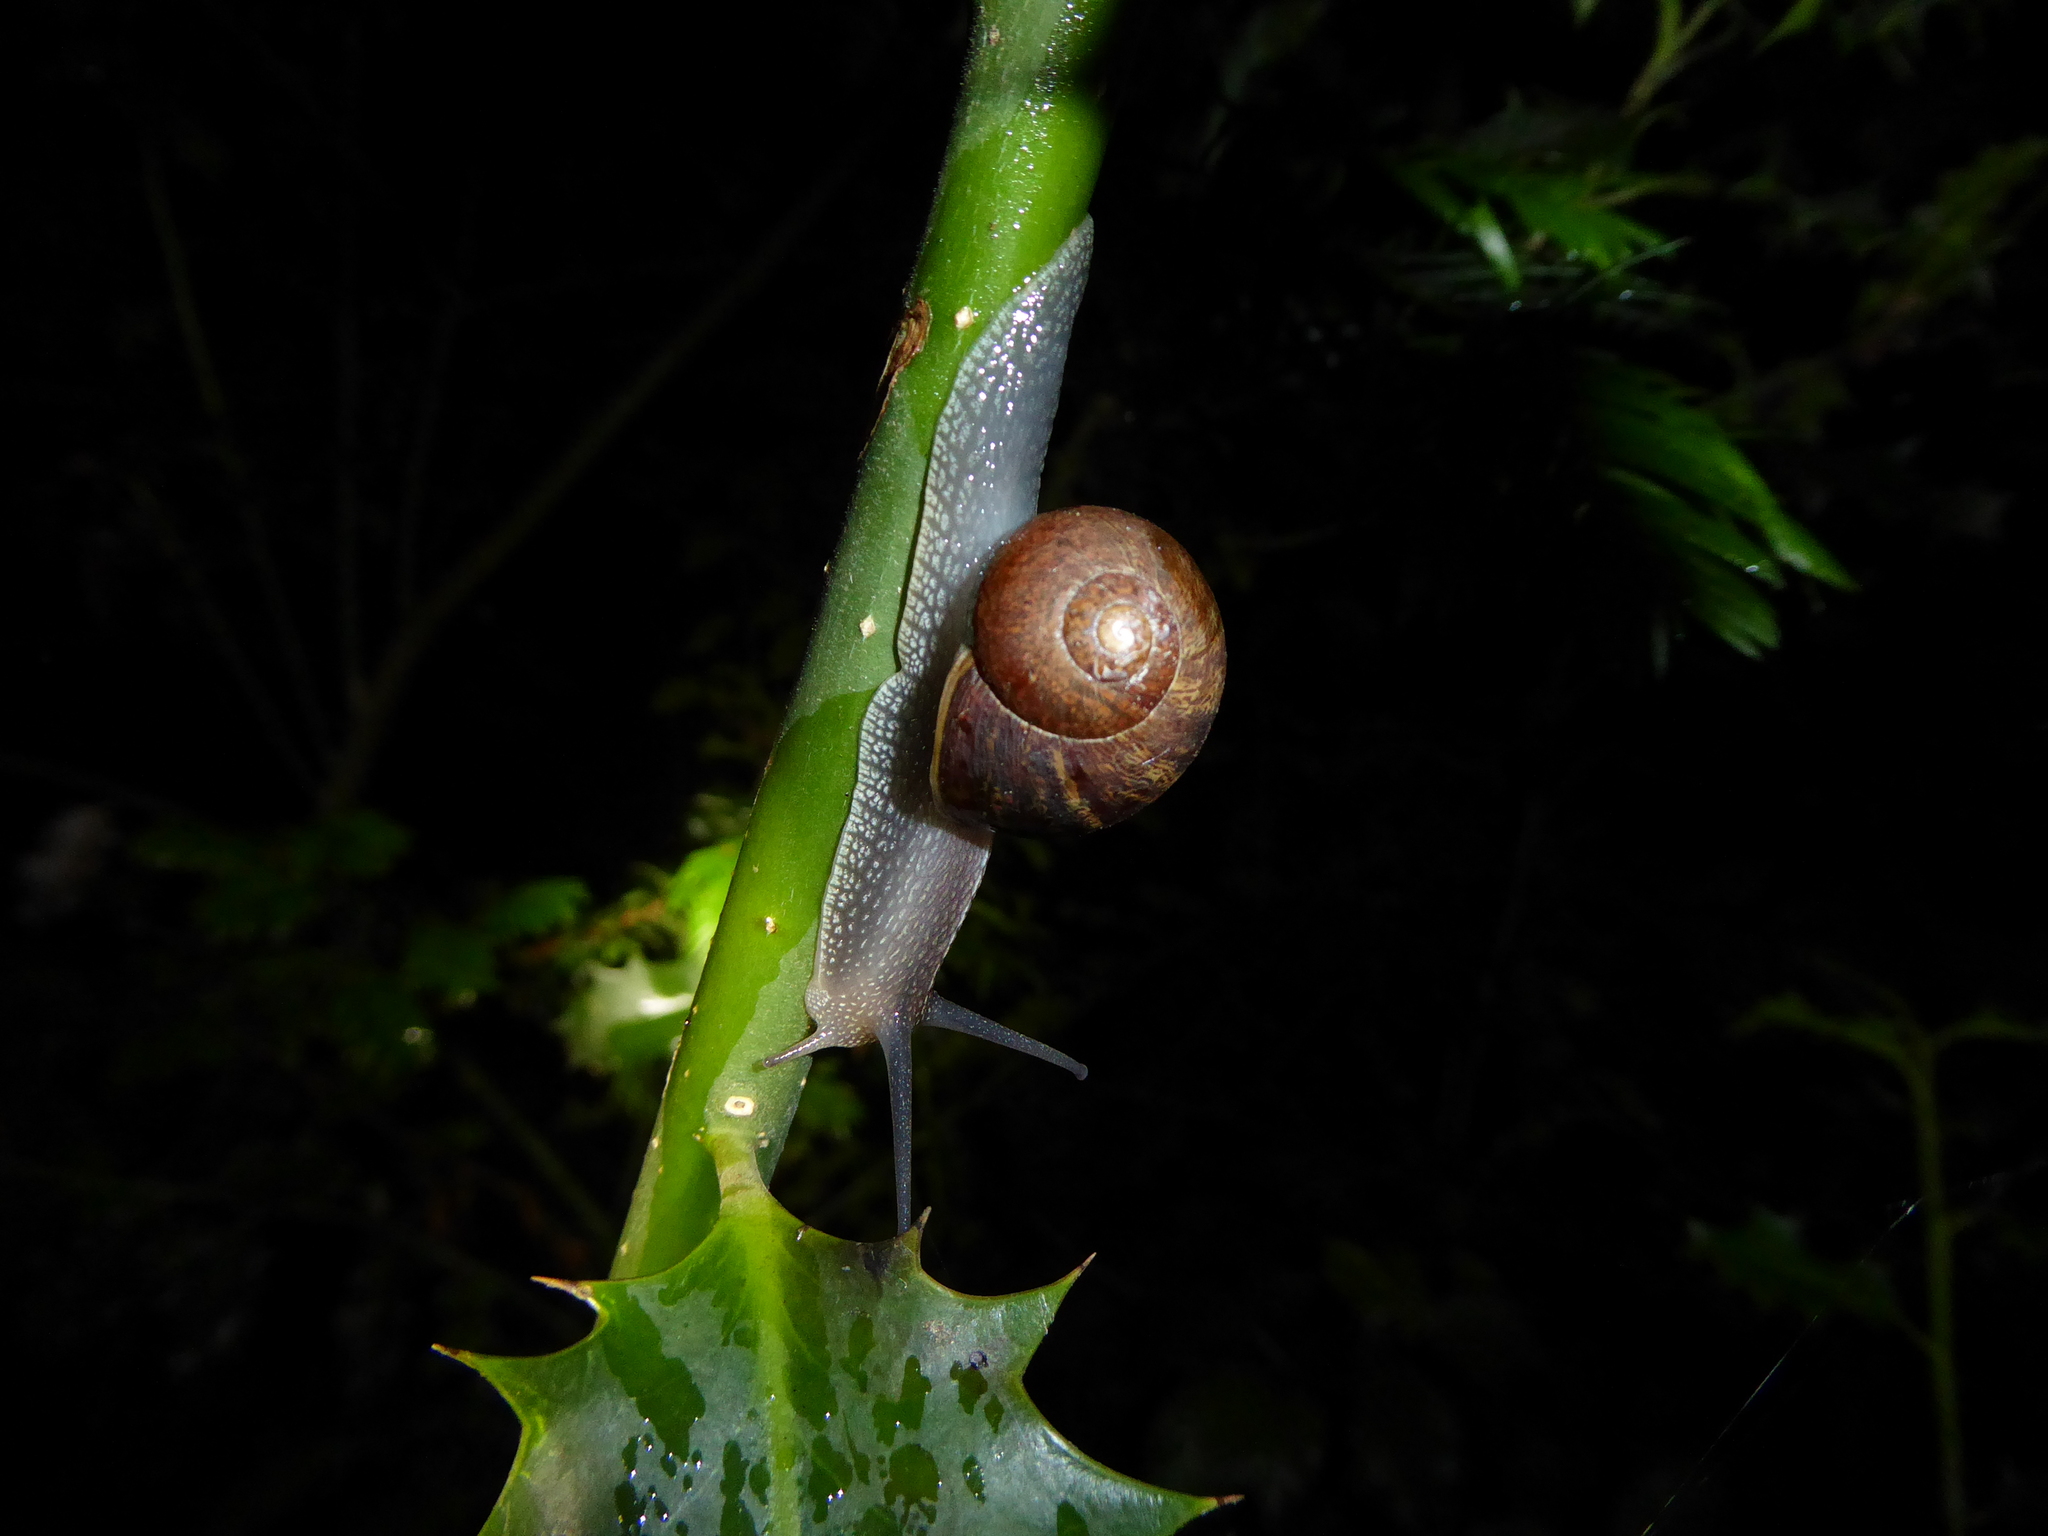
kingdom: Animalia
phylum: Mollusca
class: Gastropoda
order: Stylommatophora
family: Helicidae
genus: Cornu
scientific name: Cornu aspersum
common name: Brown garden snail
